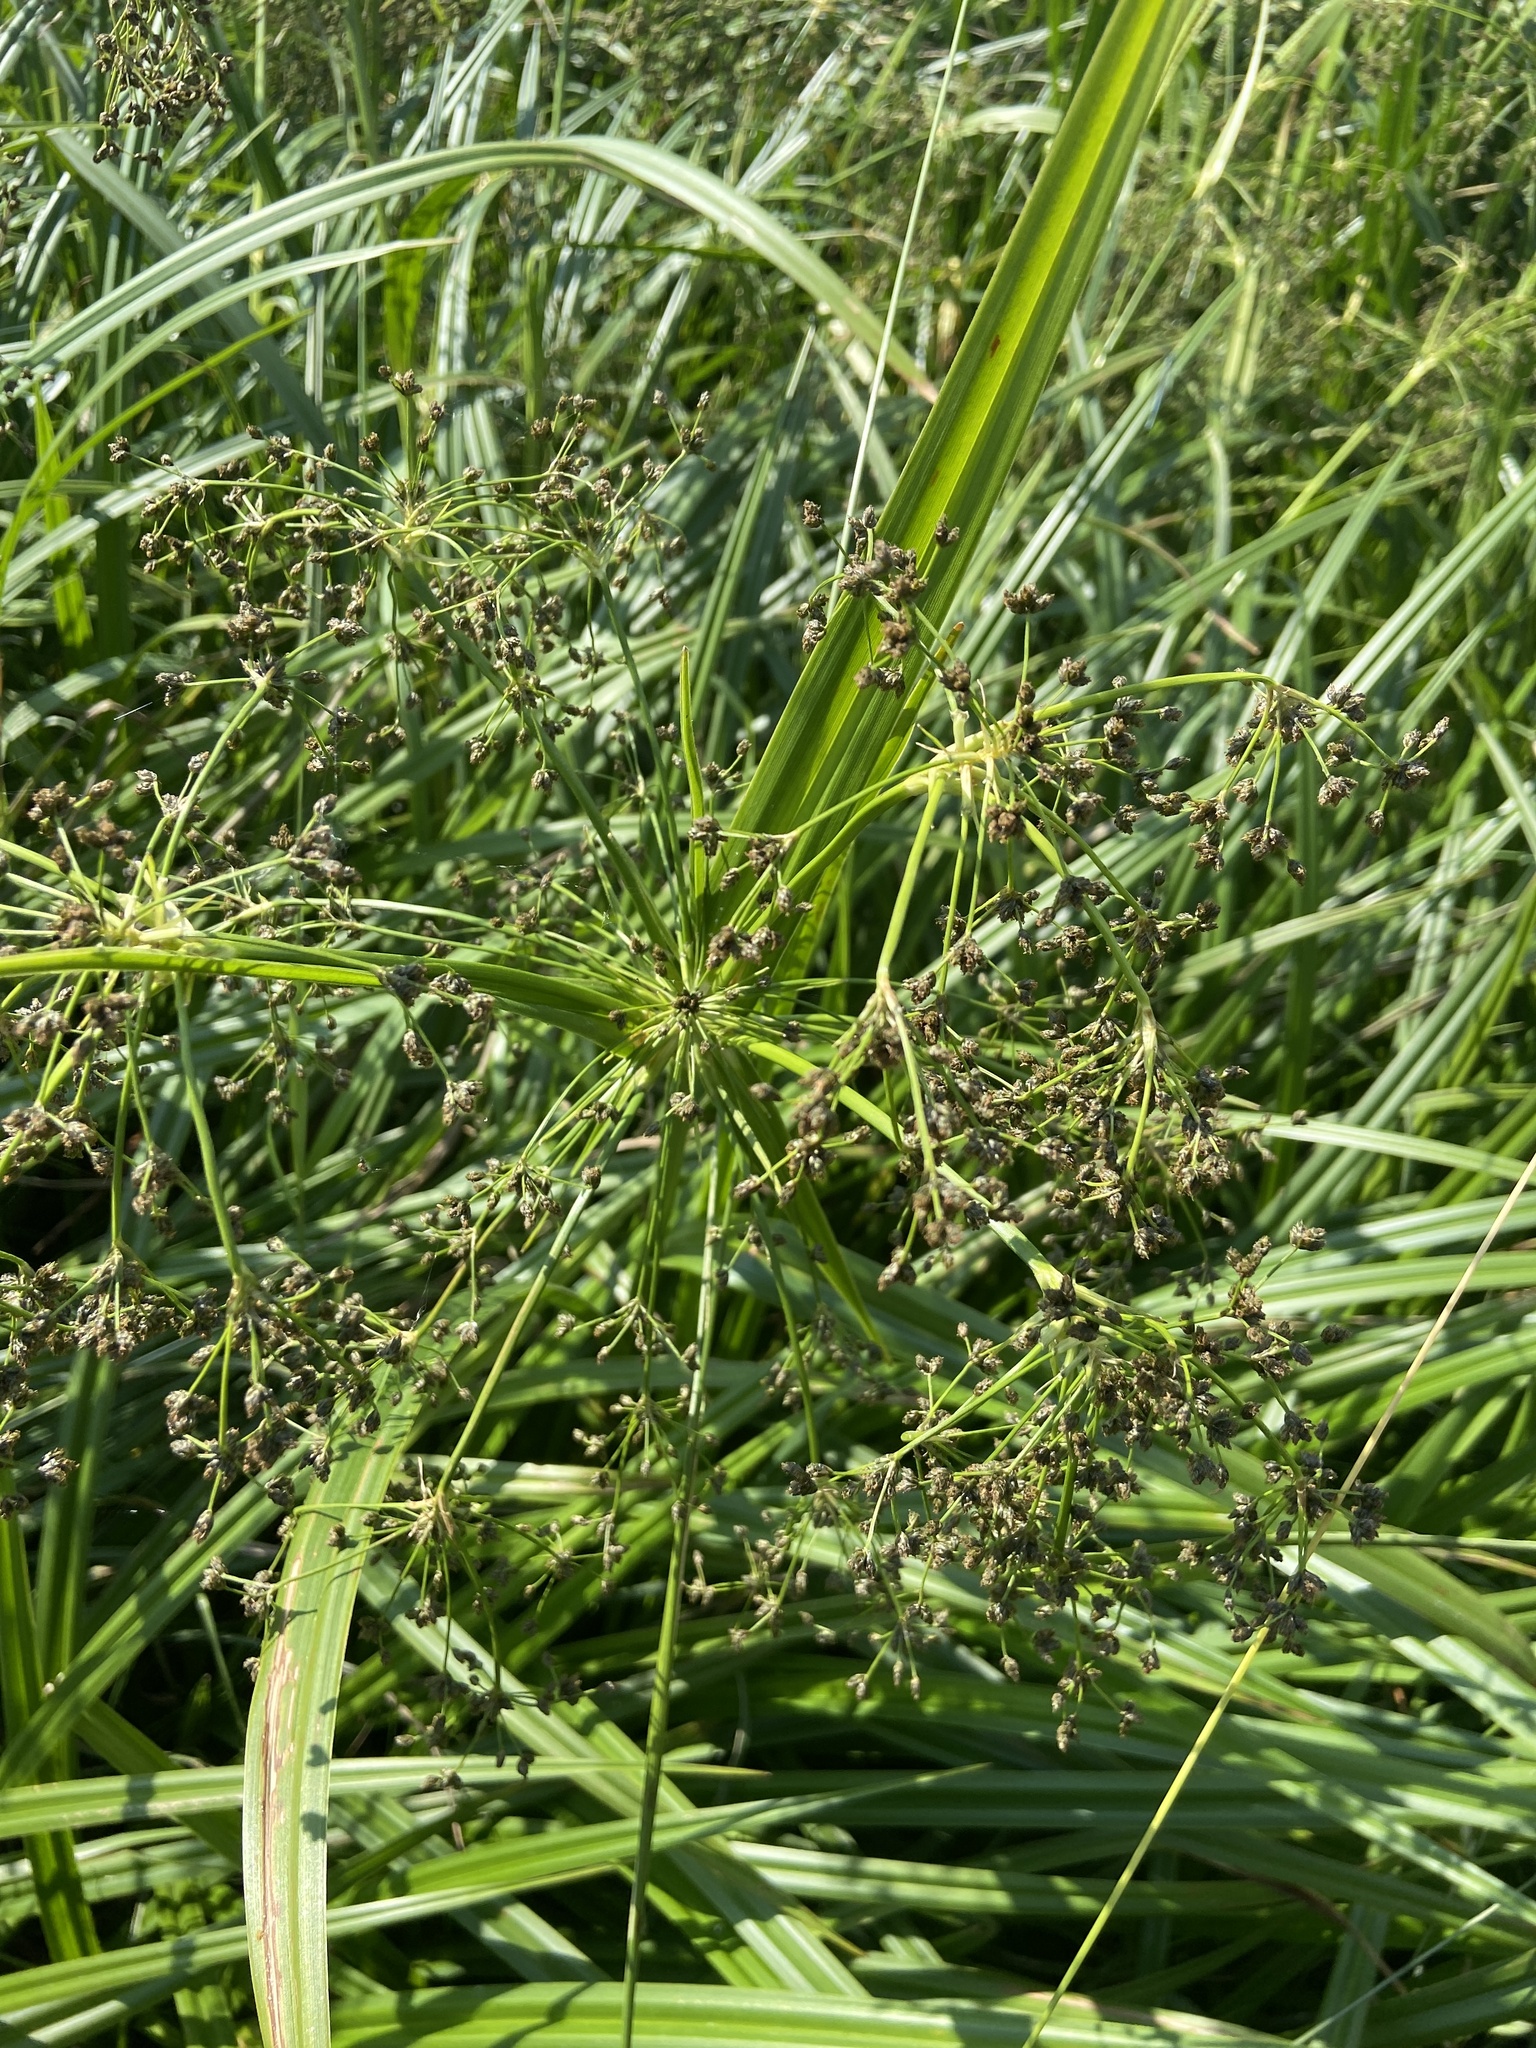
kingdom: Plantae
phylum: Tracheophyta
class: Liliopsida
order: Poales
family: Cyperaceae
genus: Scirpus
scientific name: Scirpus sylvaticus
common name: Wood club-rush
